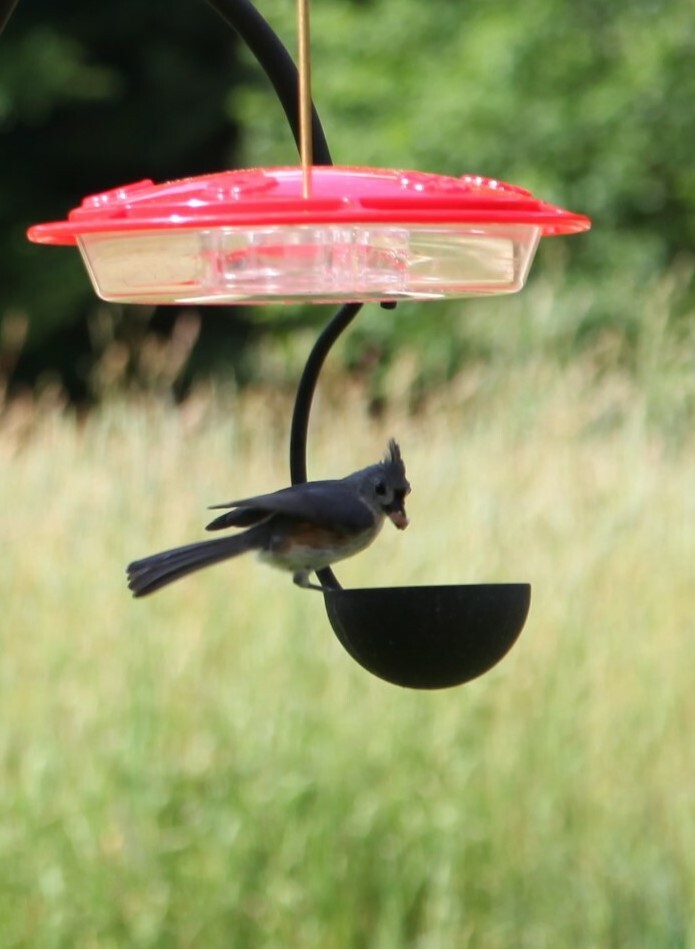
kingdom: Animalia
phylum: Chordata
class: Aves
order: Passeriformes
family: Paridae
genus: Baeolophus
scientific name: Baeolophus bicolor
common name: Tufted titmouse
